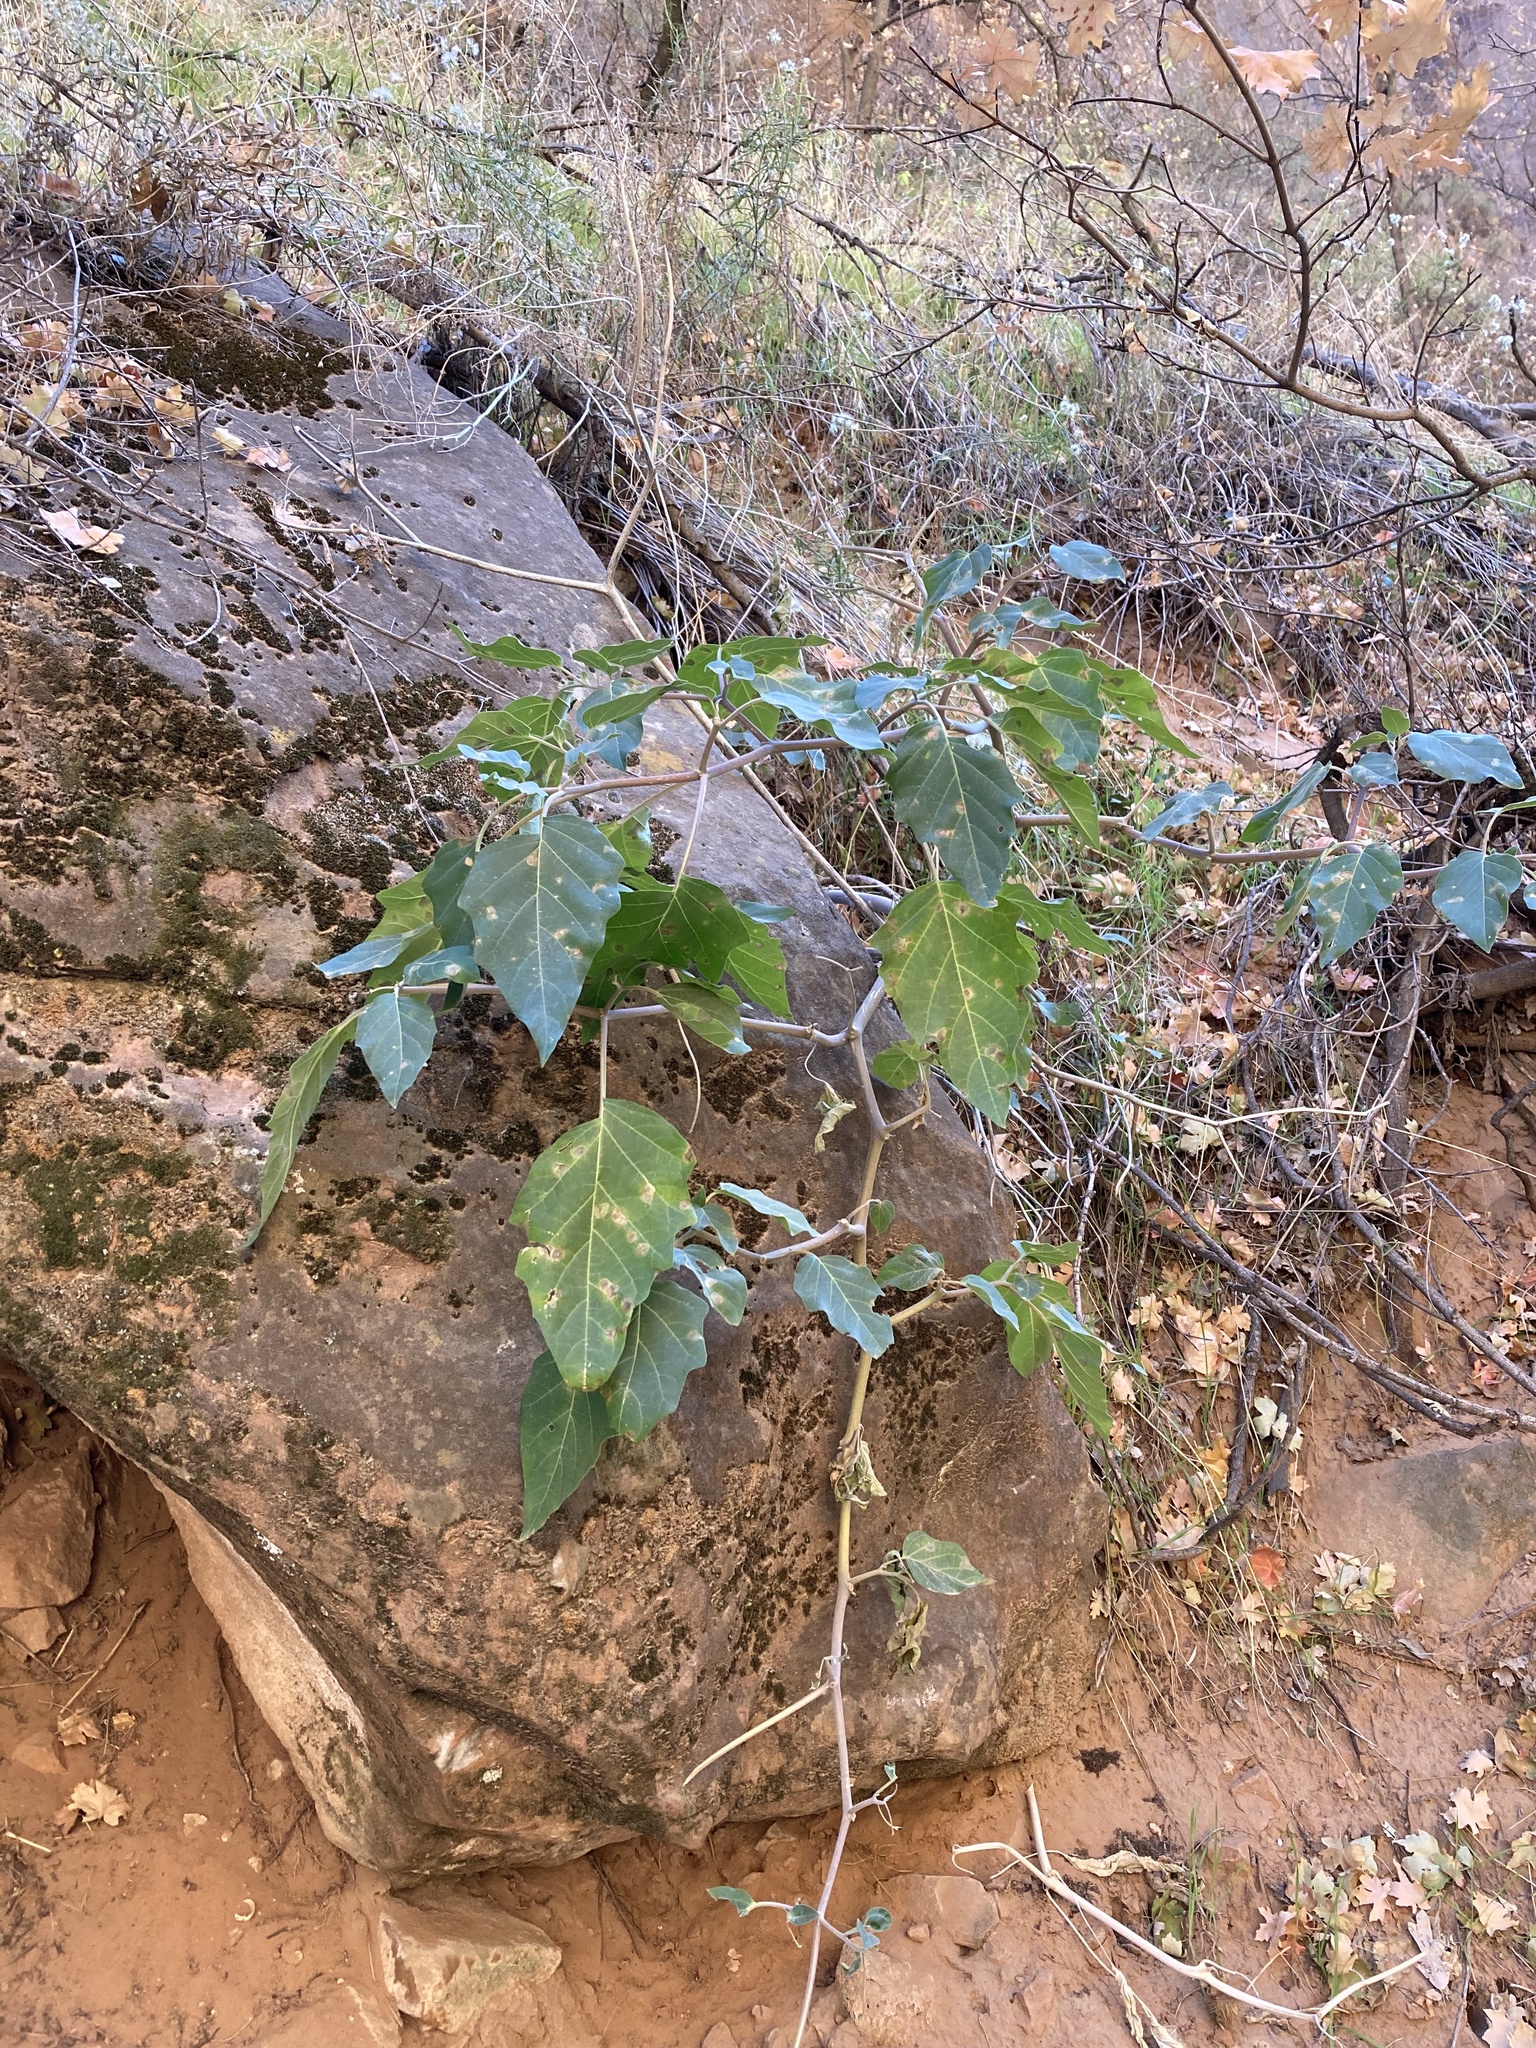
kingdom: Plantae
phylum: Tracheophyta
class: Magnoliopsida
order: Solanales
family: Solanaceae
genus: Datura
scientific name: Datura wrightii
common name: Sacred thorn-apple
